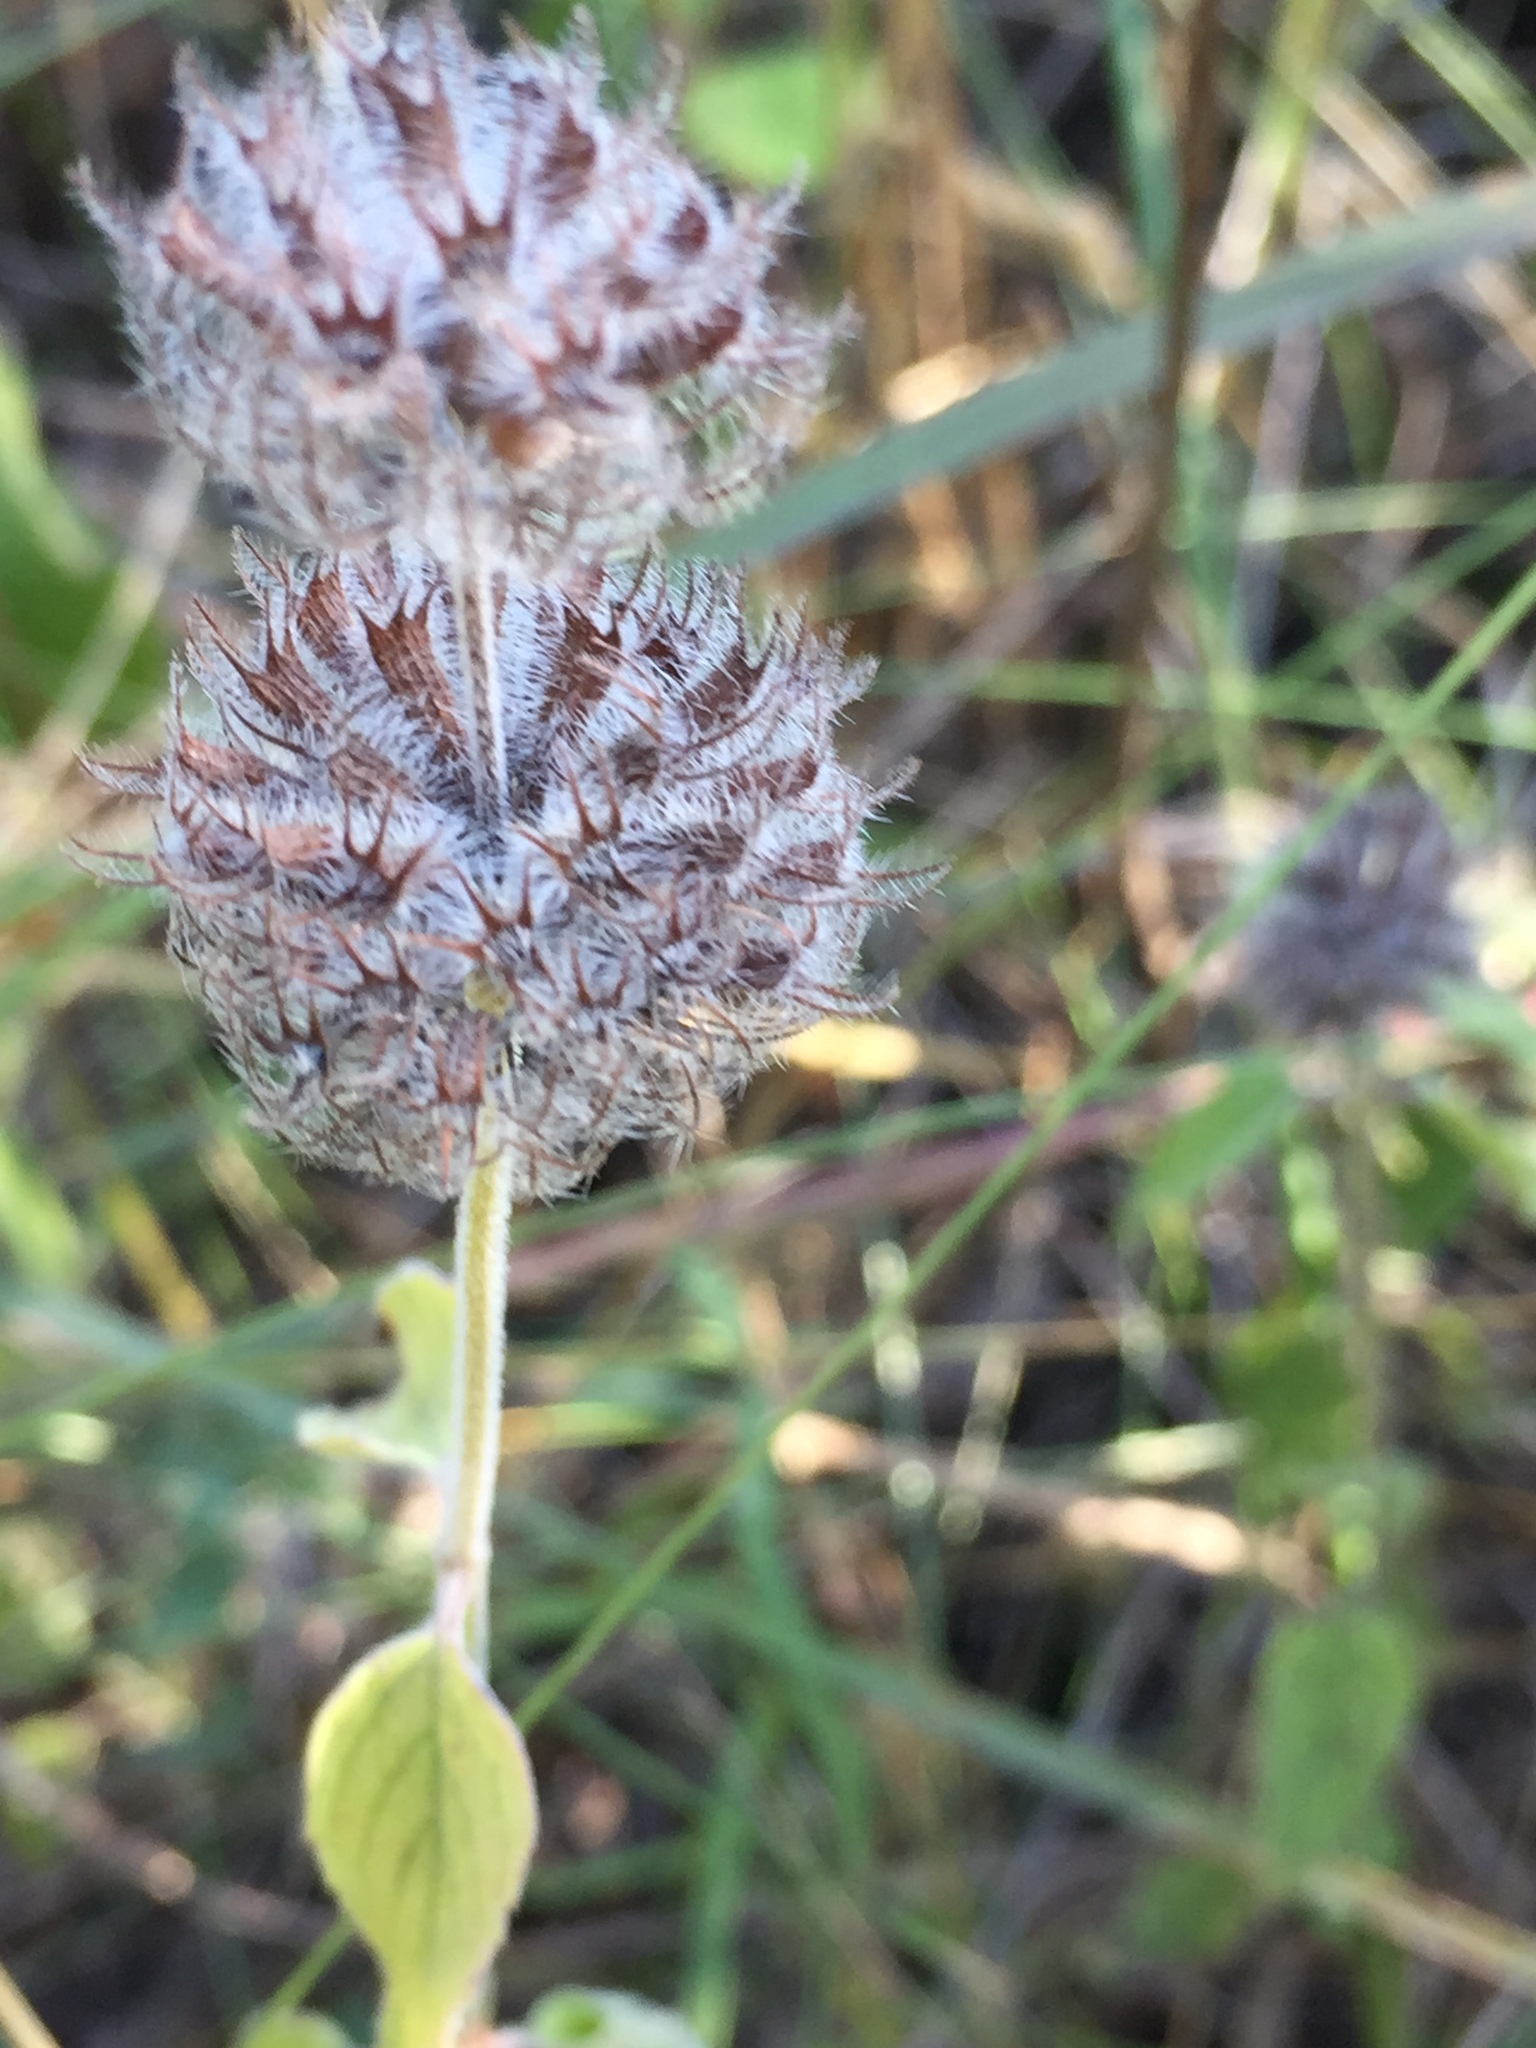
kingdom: Plantae
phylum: Tracheophyta
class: Magnoliopsida
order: Lamiales
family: Lamiaceae
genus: Clinopodium
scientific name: Clinopodium vulgare
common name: Wild basil
